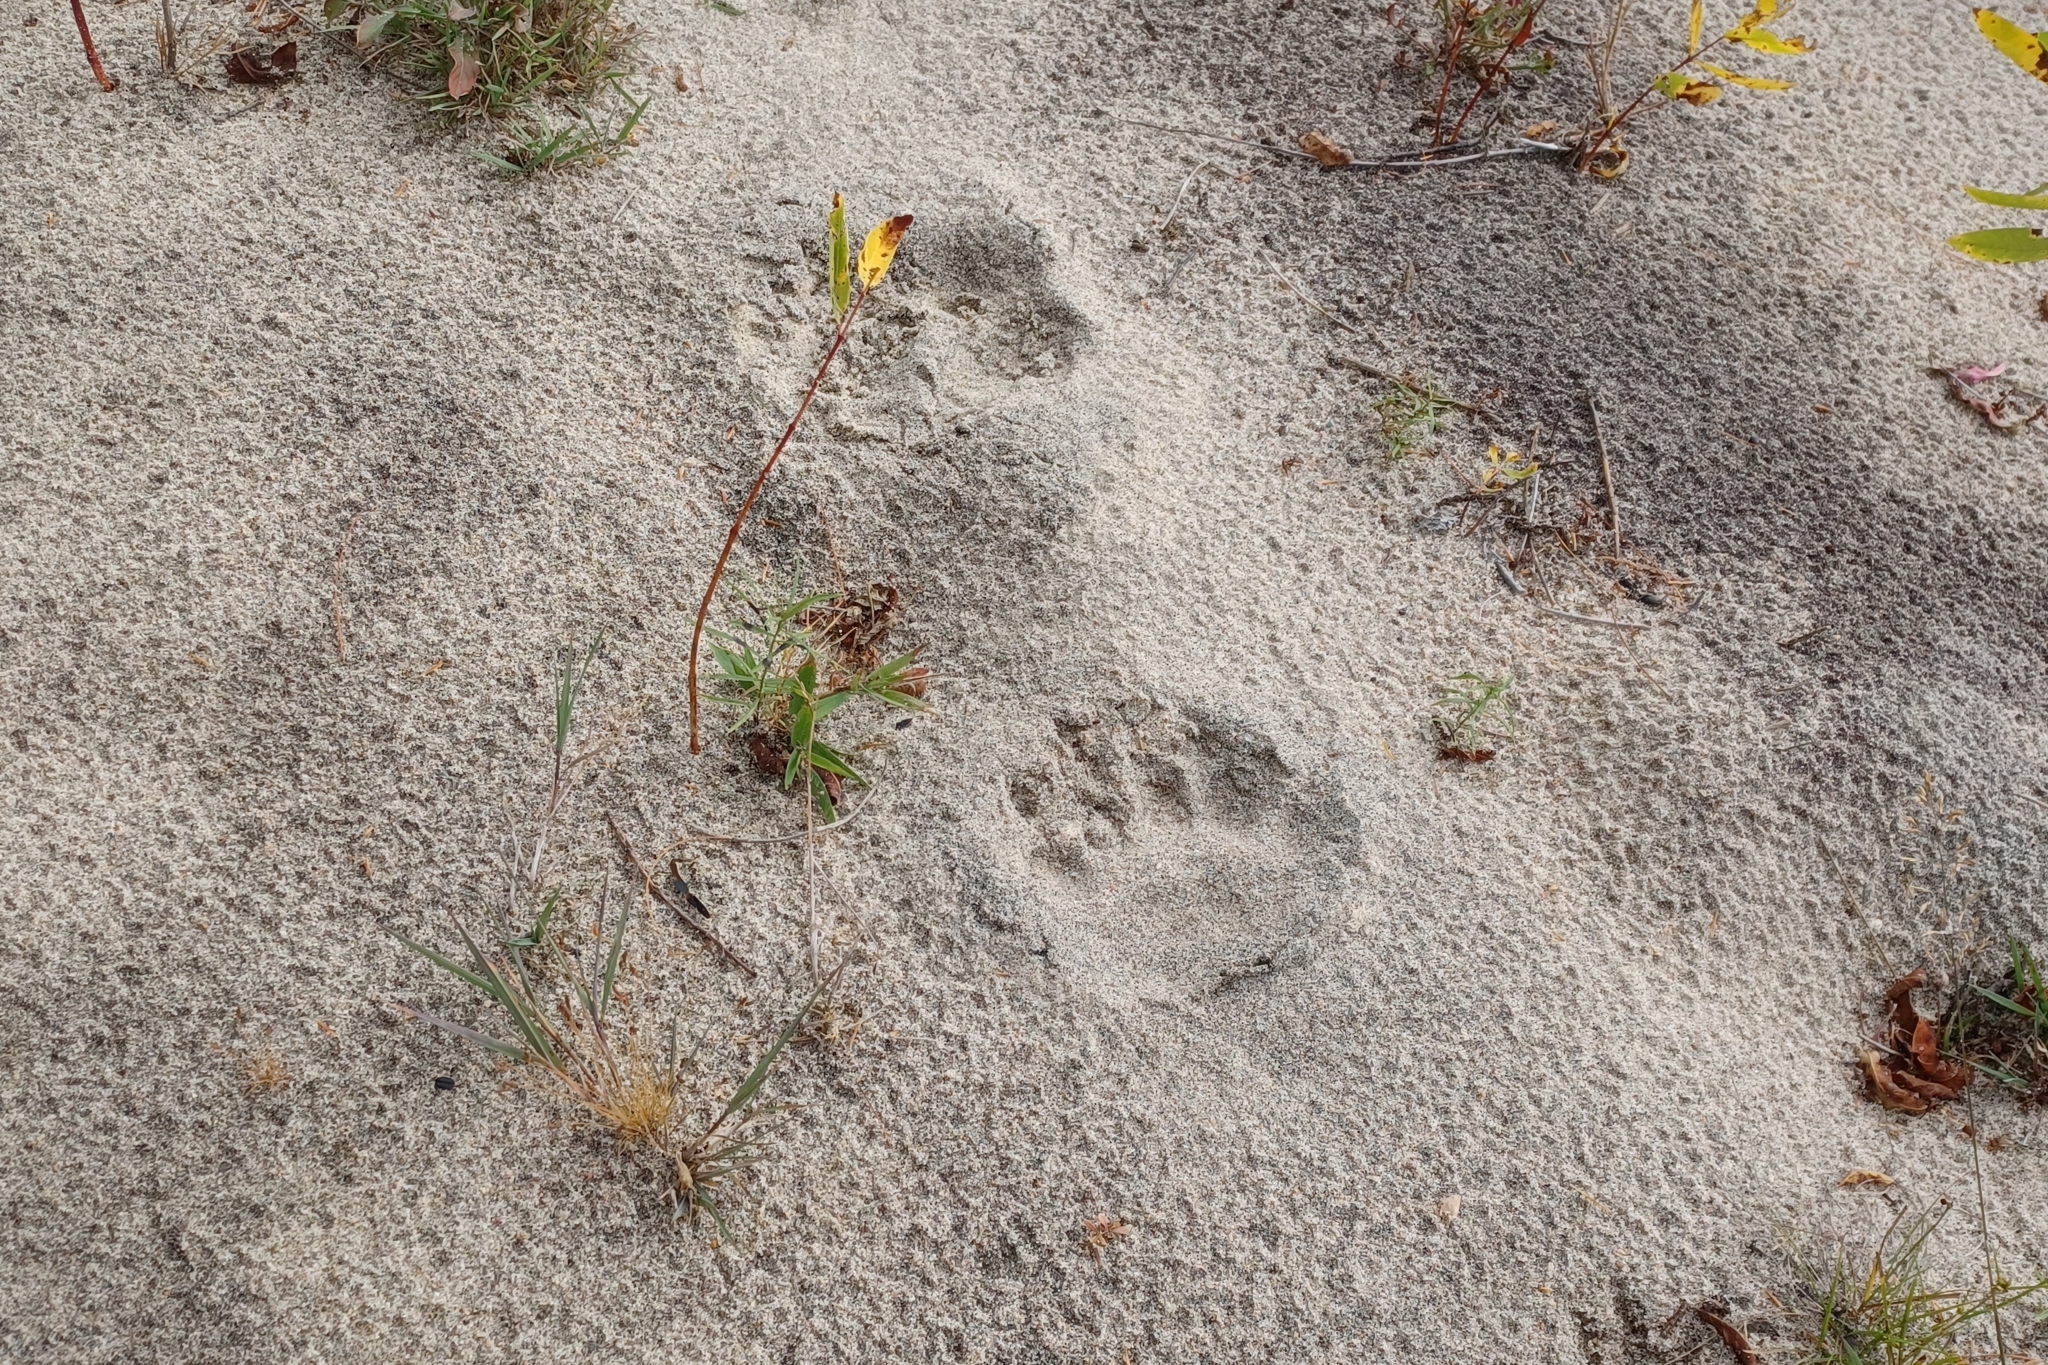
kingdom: Animalia
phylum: Chordata
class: Mammalia
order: Carnivora
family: Ursidae
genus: Ursus
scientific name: Ursus americanus
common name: American black bear
